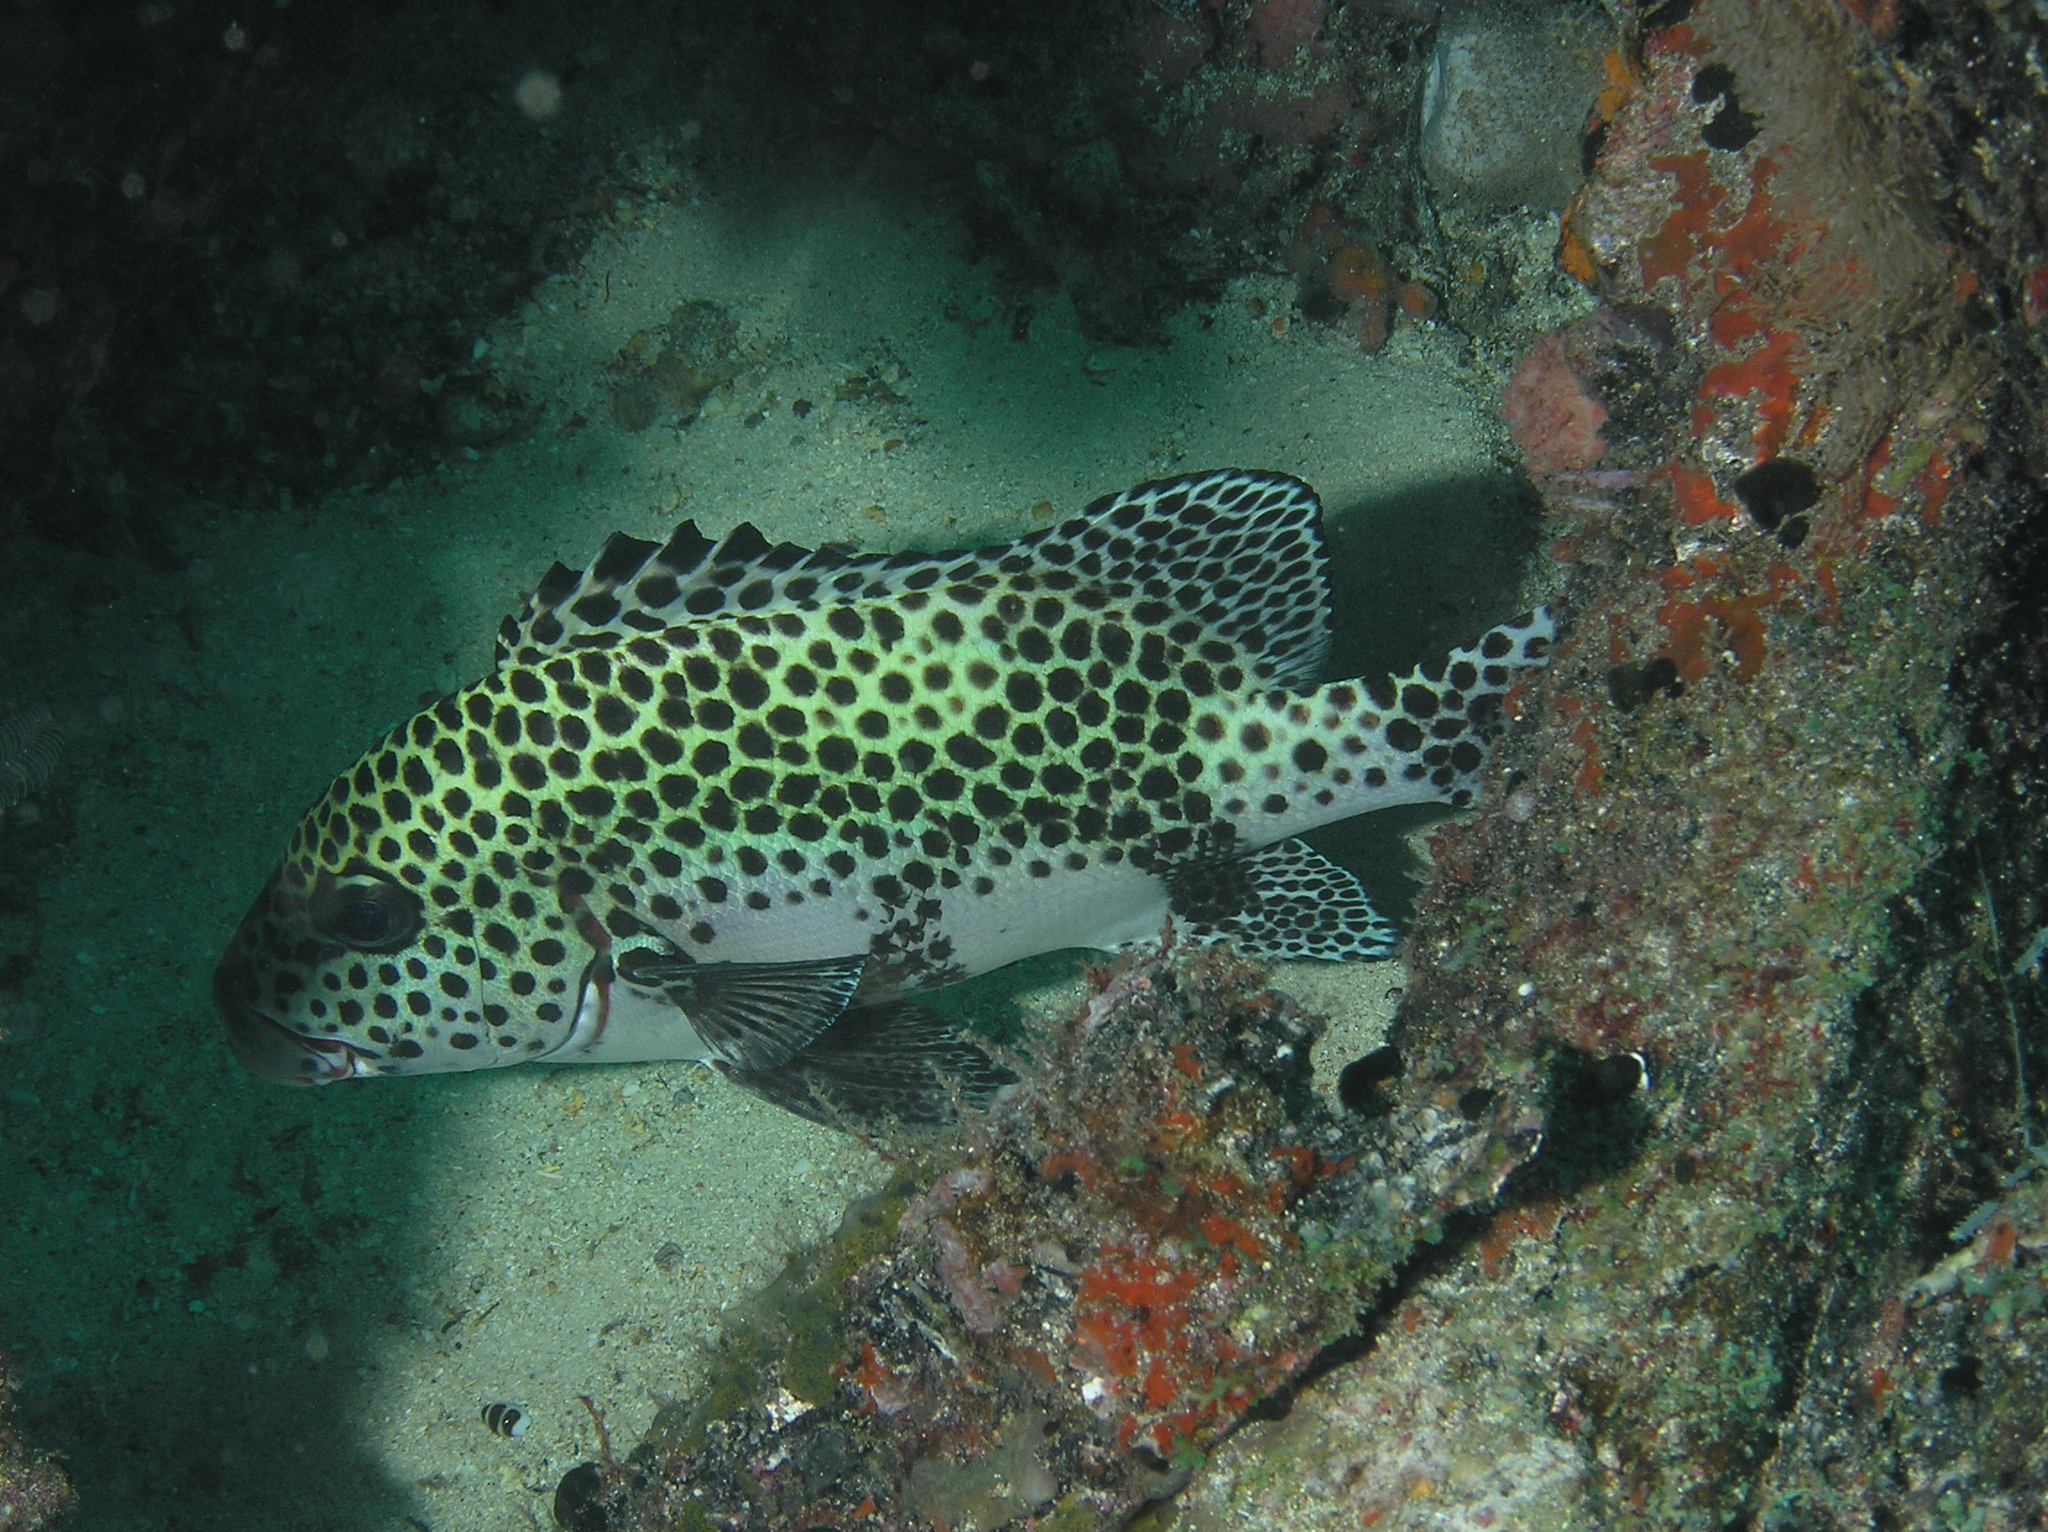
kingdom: Animalia
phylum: Chordata
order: Perciformes
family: Haemulidae
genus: Plectorhinchus
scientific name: Plectorhinchus chaetodonoides
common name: Harlequin sweetlips
